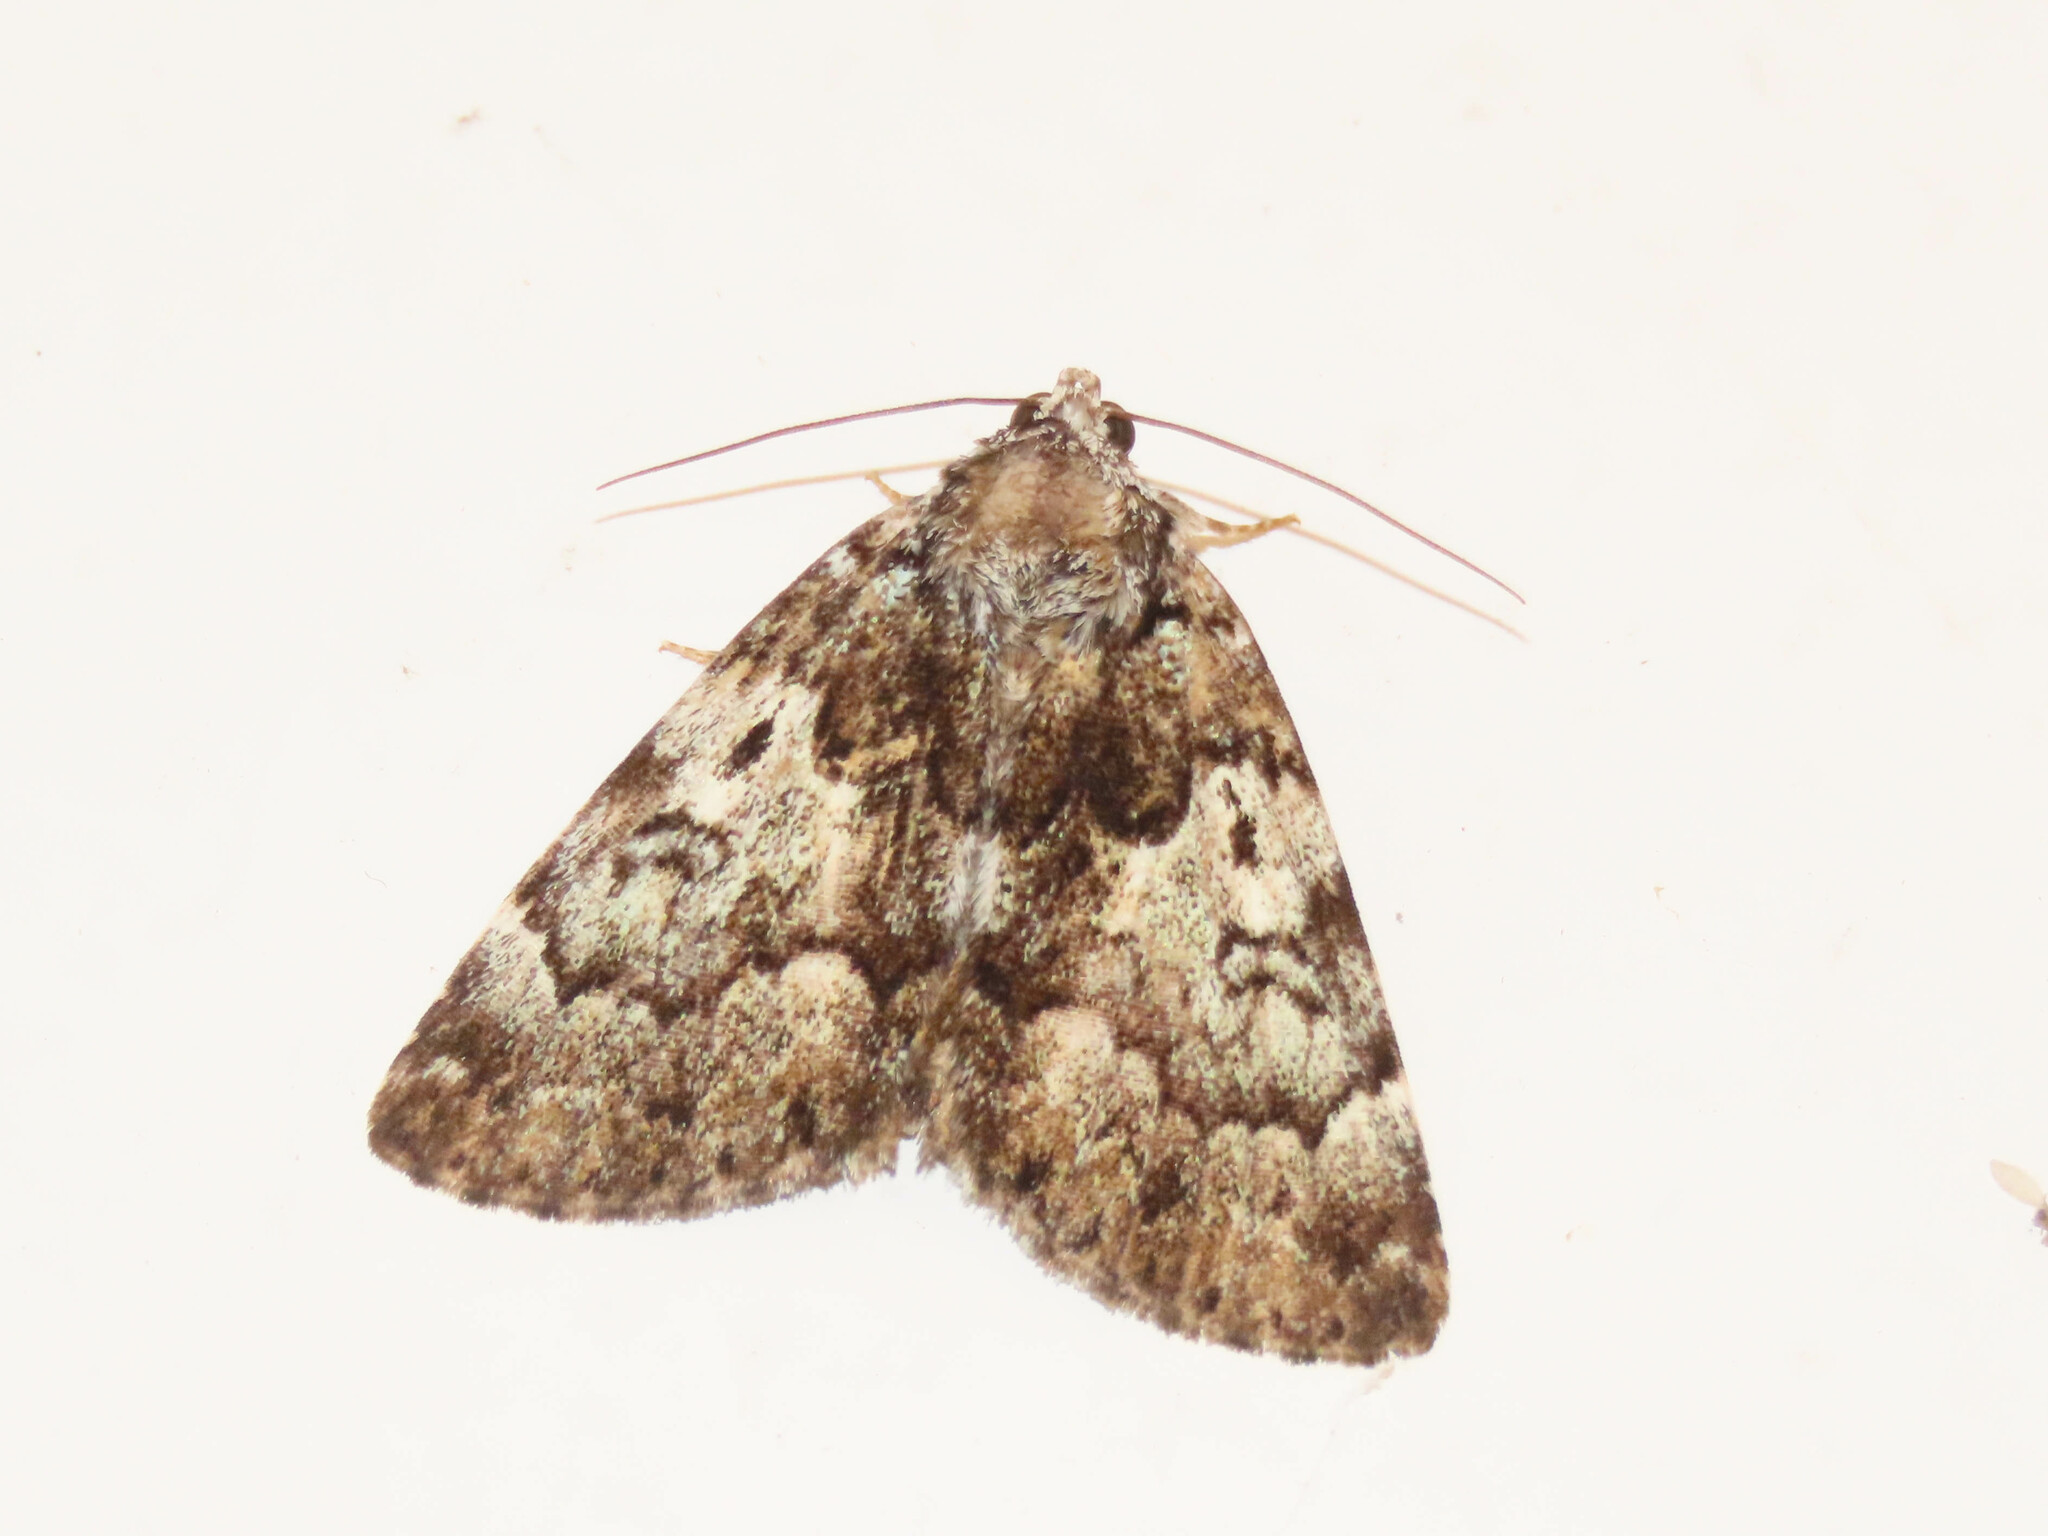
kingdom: Animalia
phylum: Arthropoda
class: Insecta
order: Lepidoptera
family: Erebidae
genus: Allotria
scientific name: Allotria elonympha
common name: False underwing
